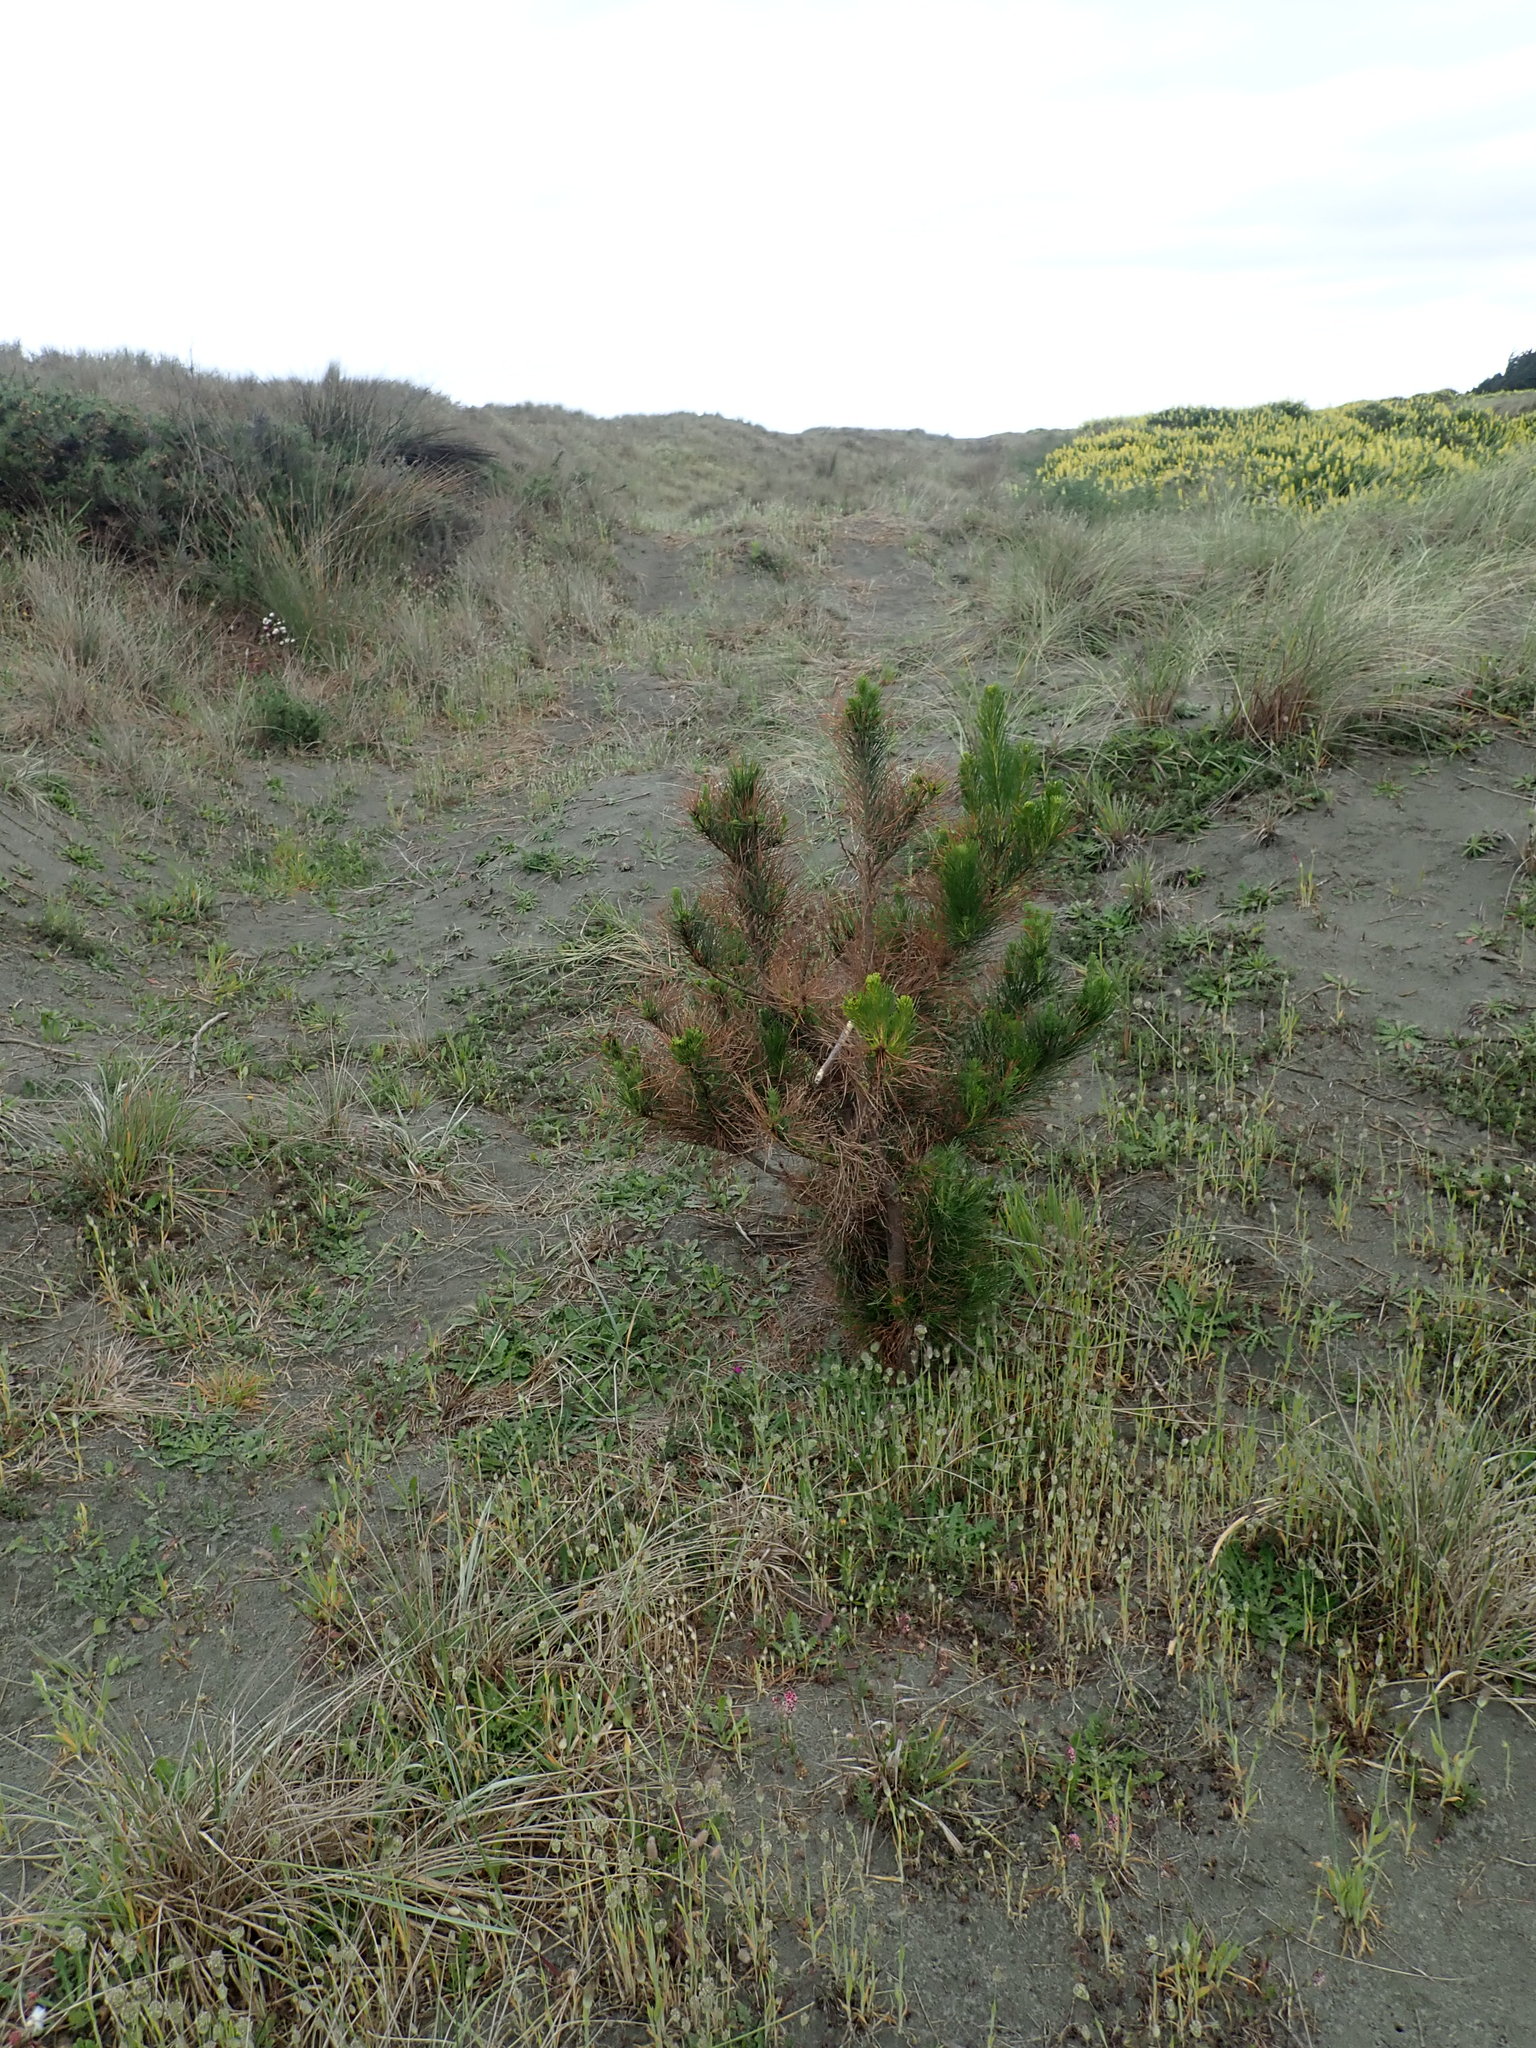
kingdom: Plantae
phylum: Tracheophyta
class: Pinopsida
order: Pinales
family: Pinaceae
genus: Pinus
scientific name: Pinus radiata
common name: Monterey pine
